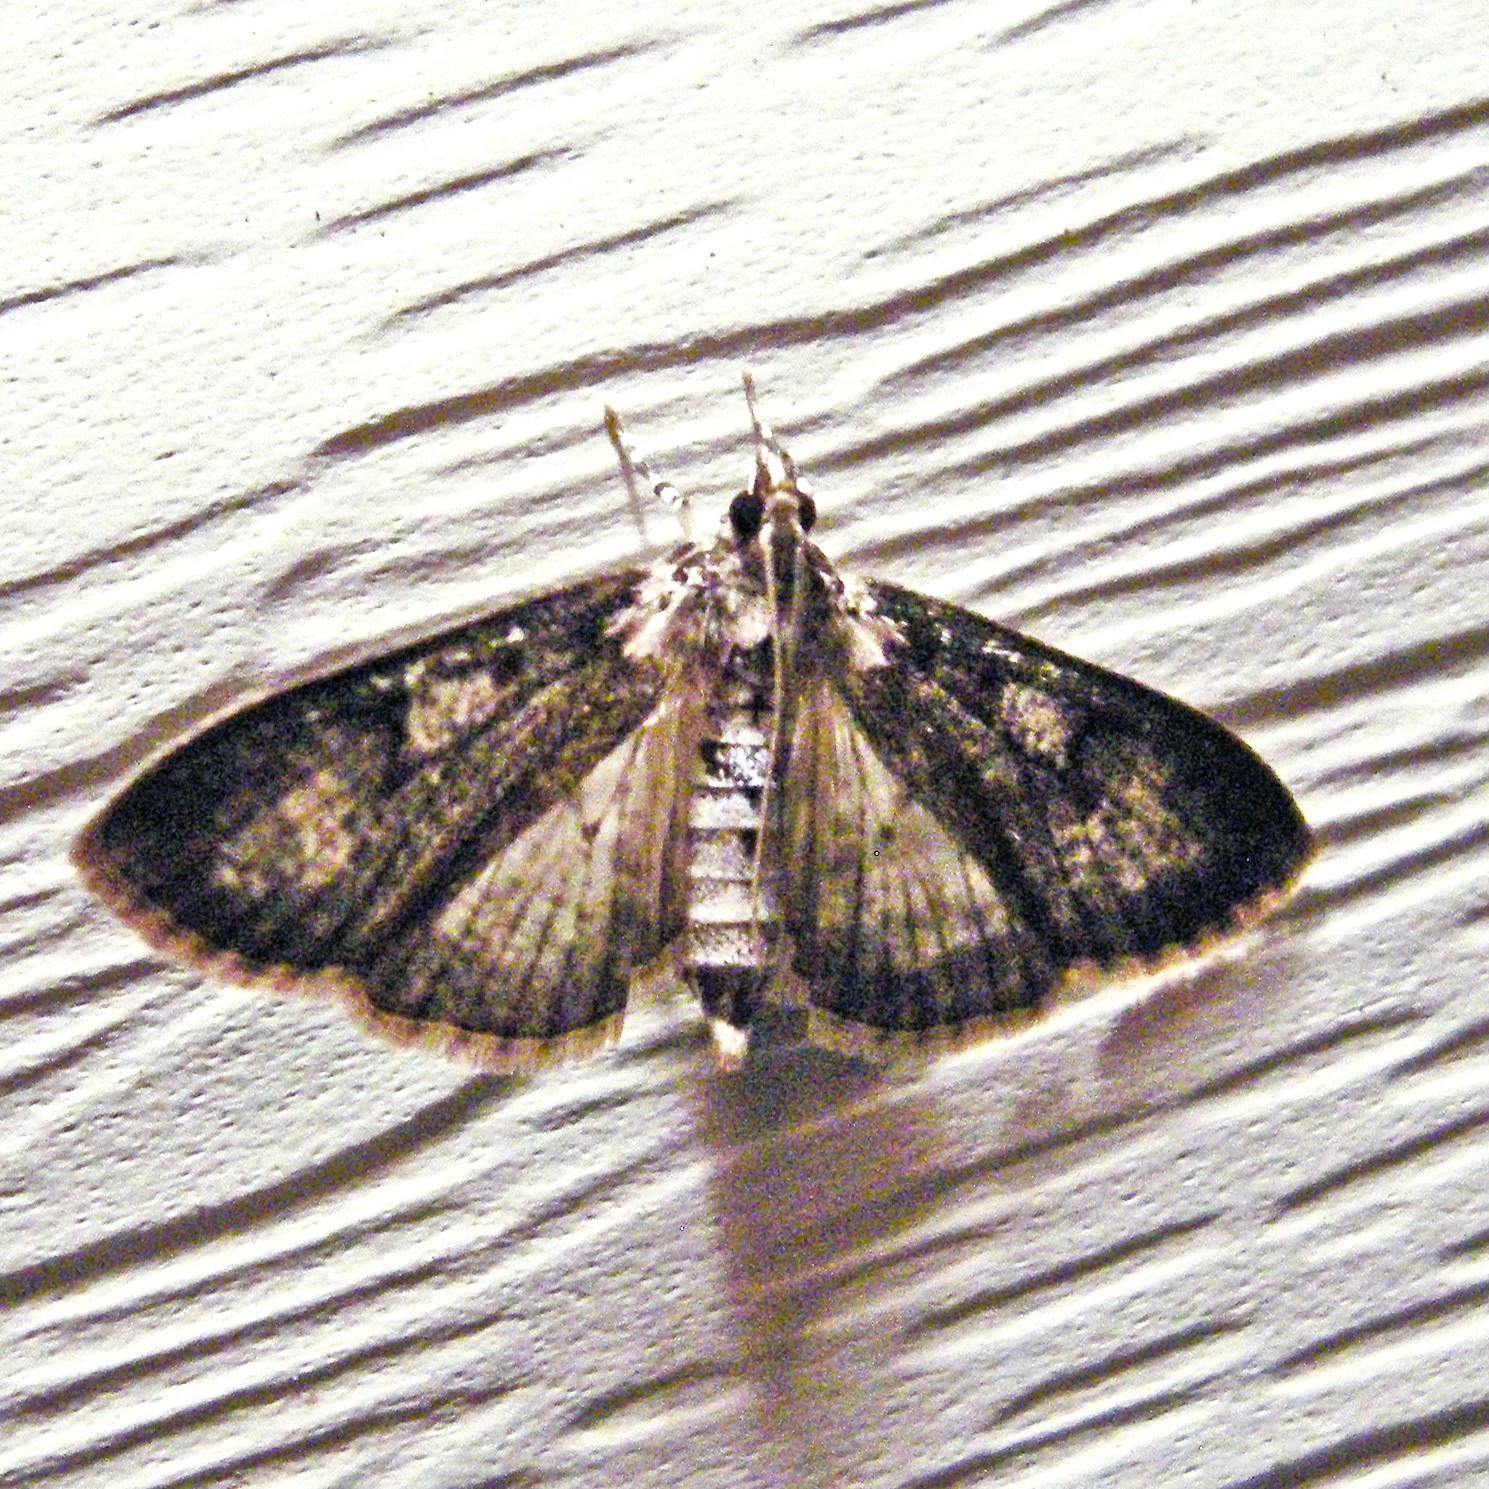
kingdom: Animalia
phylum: Arthropoda
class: Insecta
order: Lepidoptera
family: Crambidae
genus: Palpita
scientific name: Palpita magniferalis
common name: Splendid palpita moth
